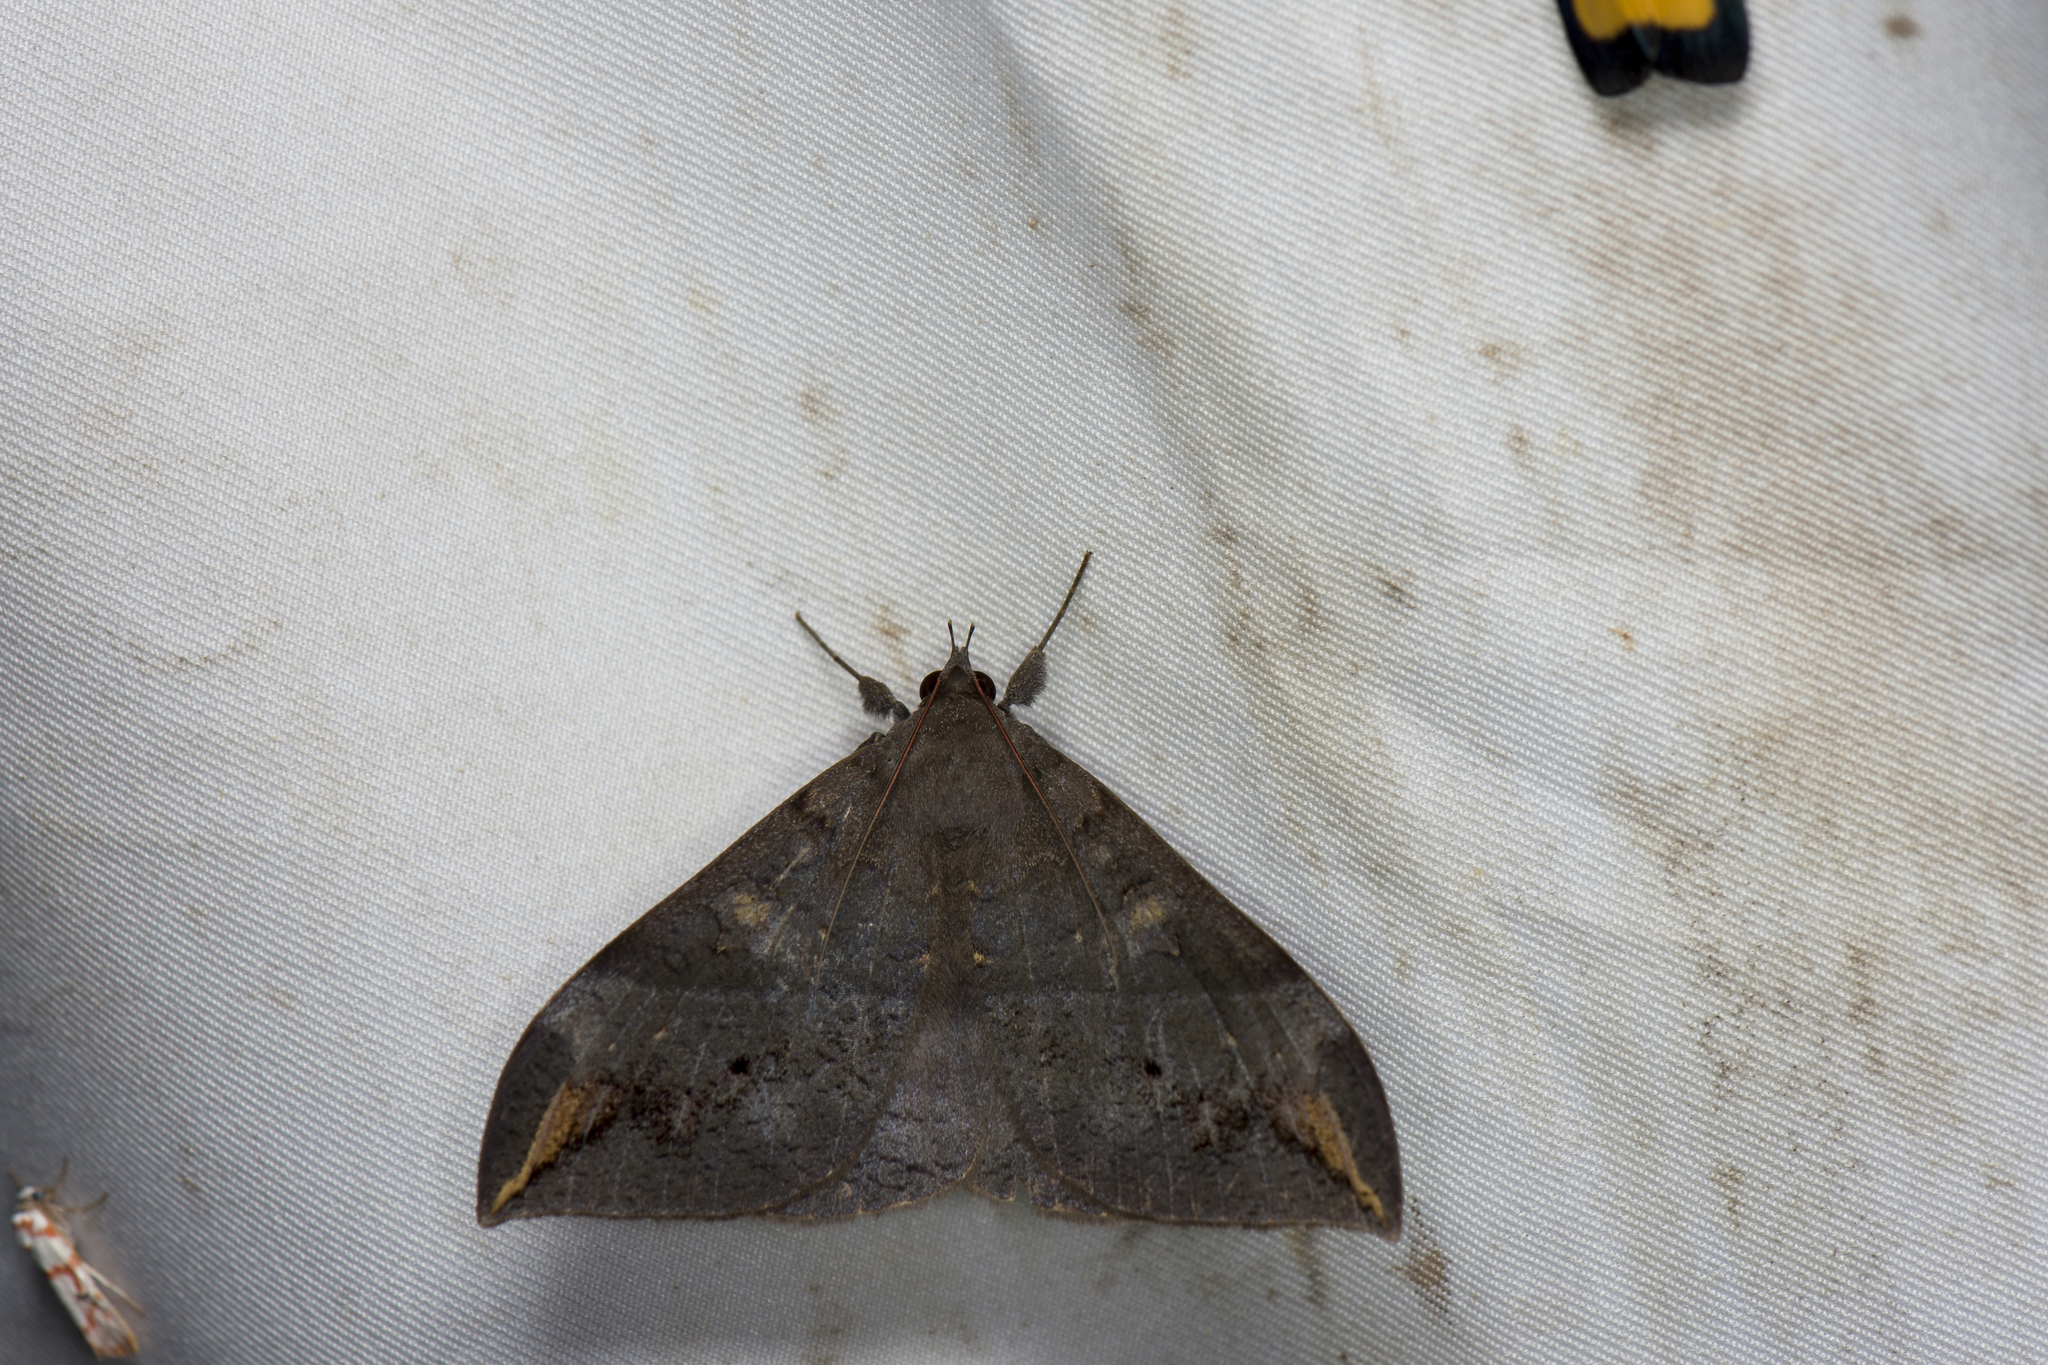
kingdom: Animalia
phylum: Arthropoda
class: Insecta
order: Lepidoptera
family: Erebidae
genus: Ischyja
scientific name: Ischyja ferrifracta
